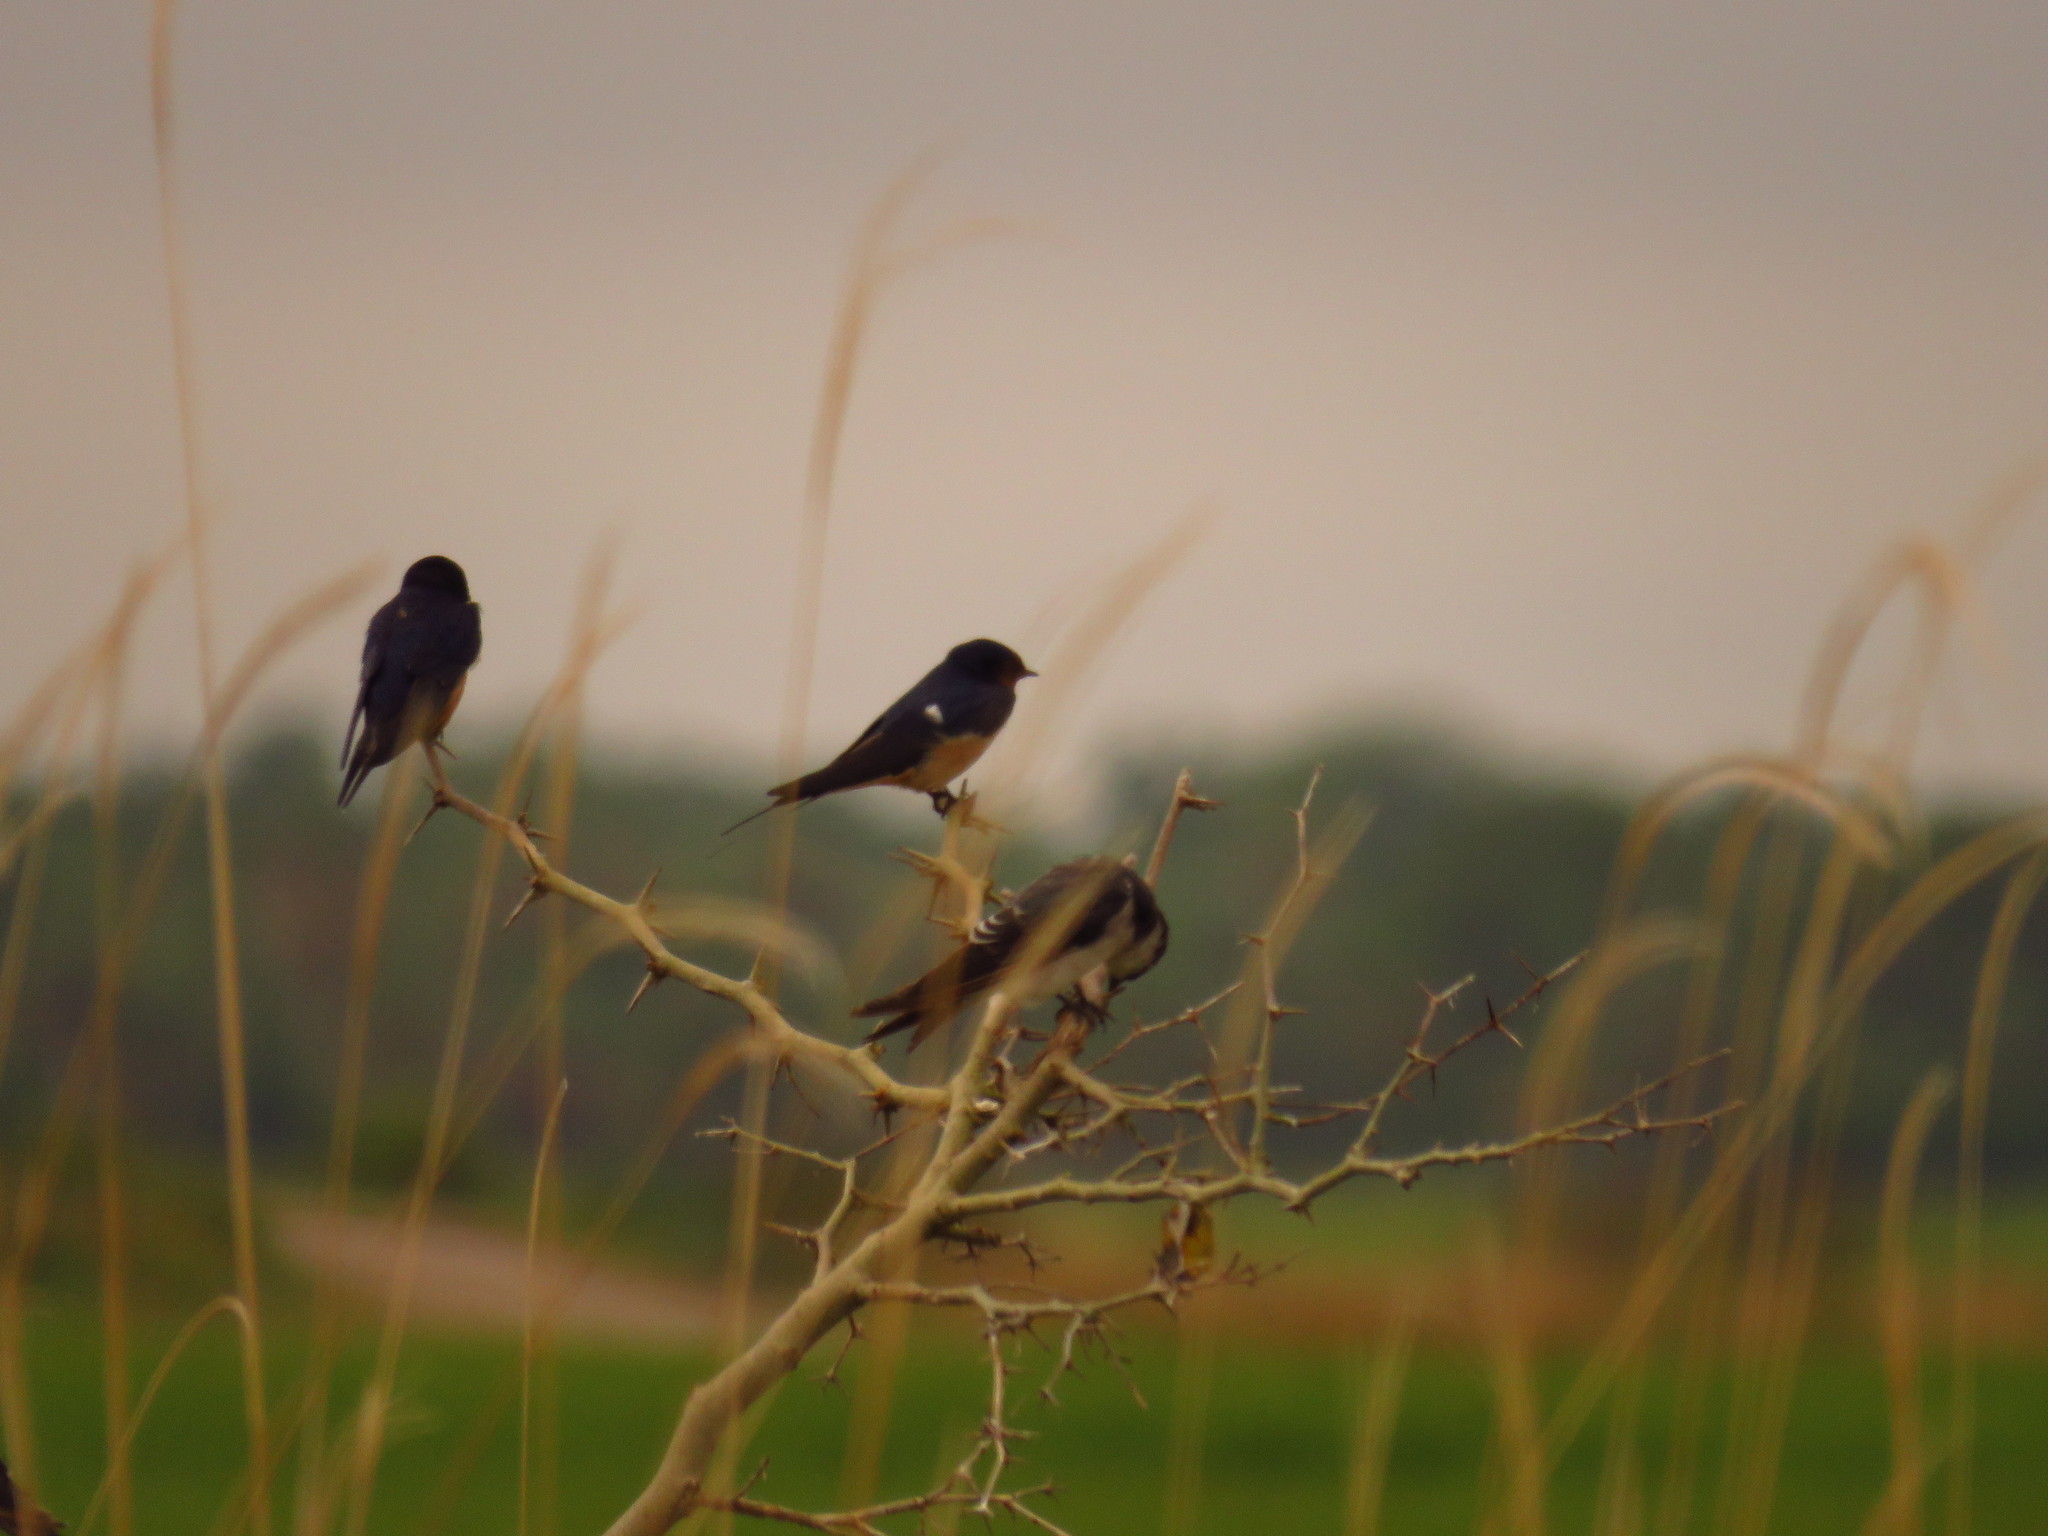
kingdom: Animalia
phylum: Chordata
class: Aves
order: Passeriformes
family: Hirundinidae
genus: Hirundo
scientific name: Hirundo rustica
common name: Barn swallow
